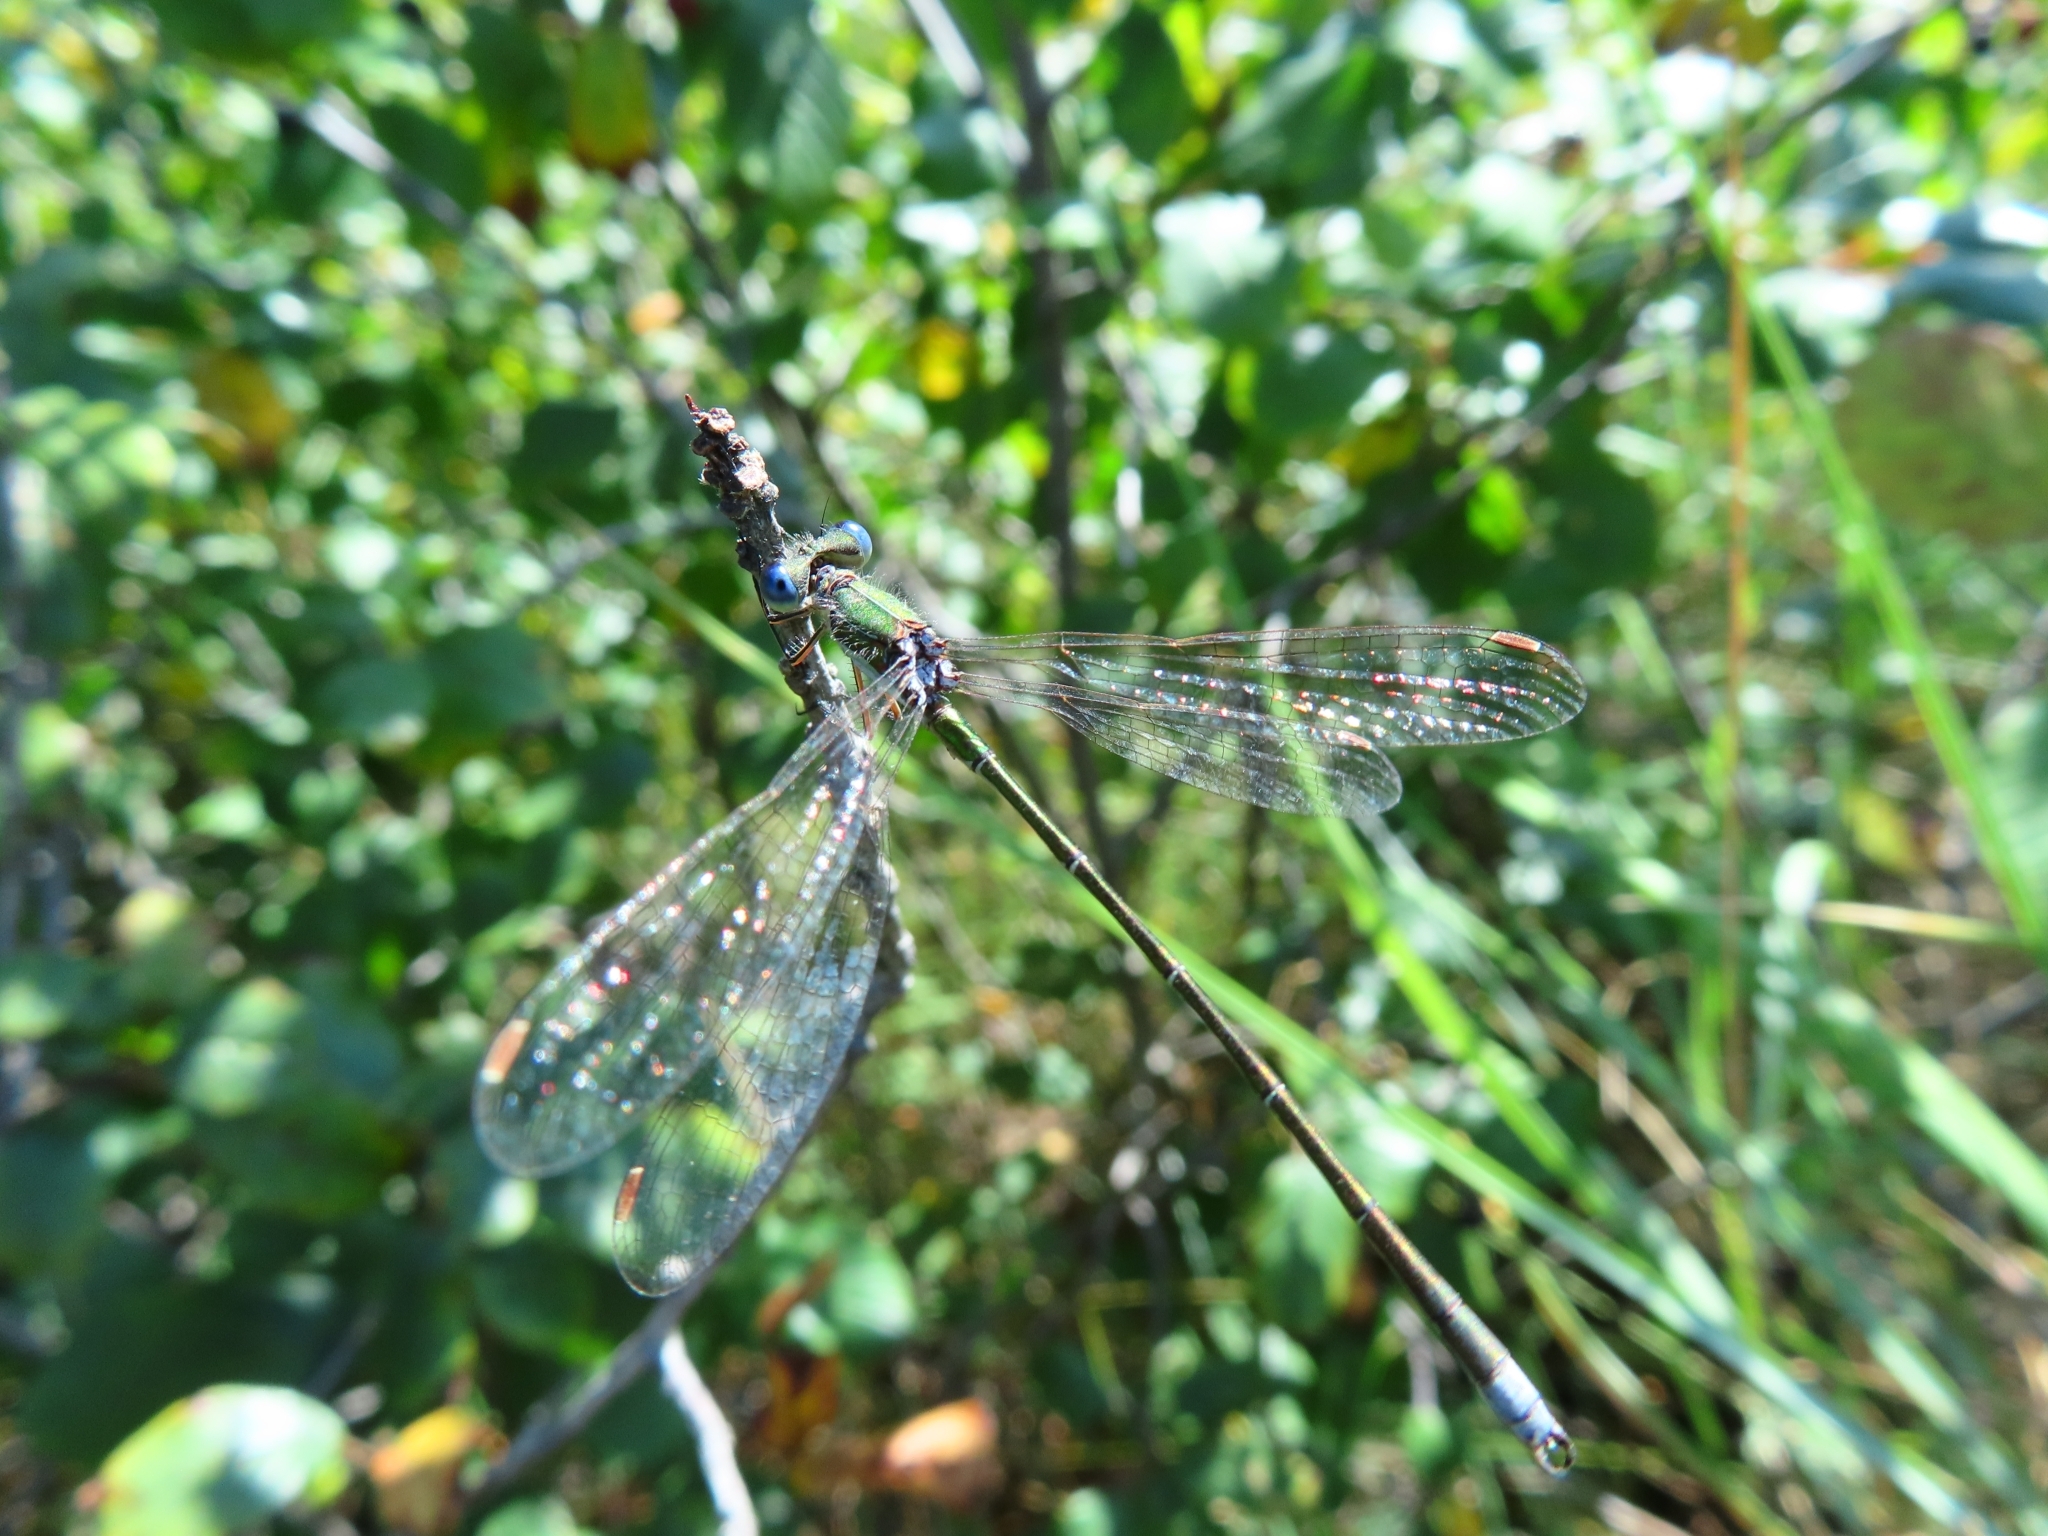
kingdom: Animalia
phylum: Arthropoda
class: Insecta
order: Odonata
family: Lestidae
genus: Lestes
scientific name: Lestes virens
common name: Small emerald spreadwing
